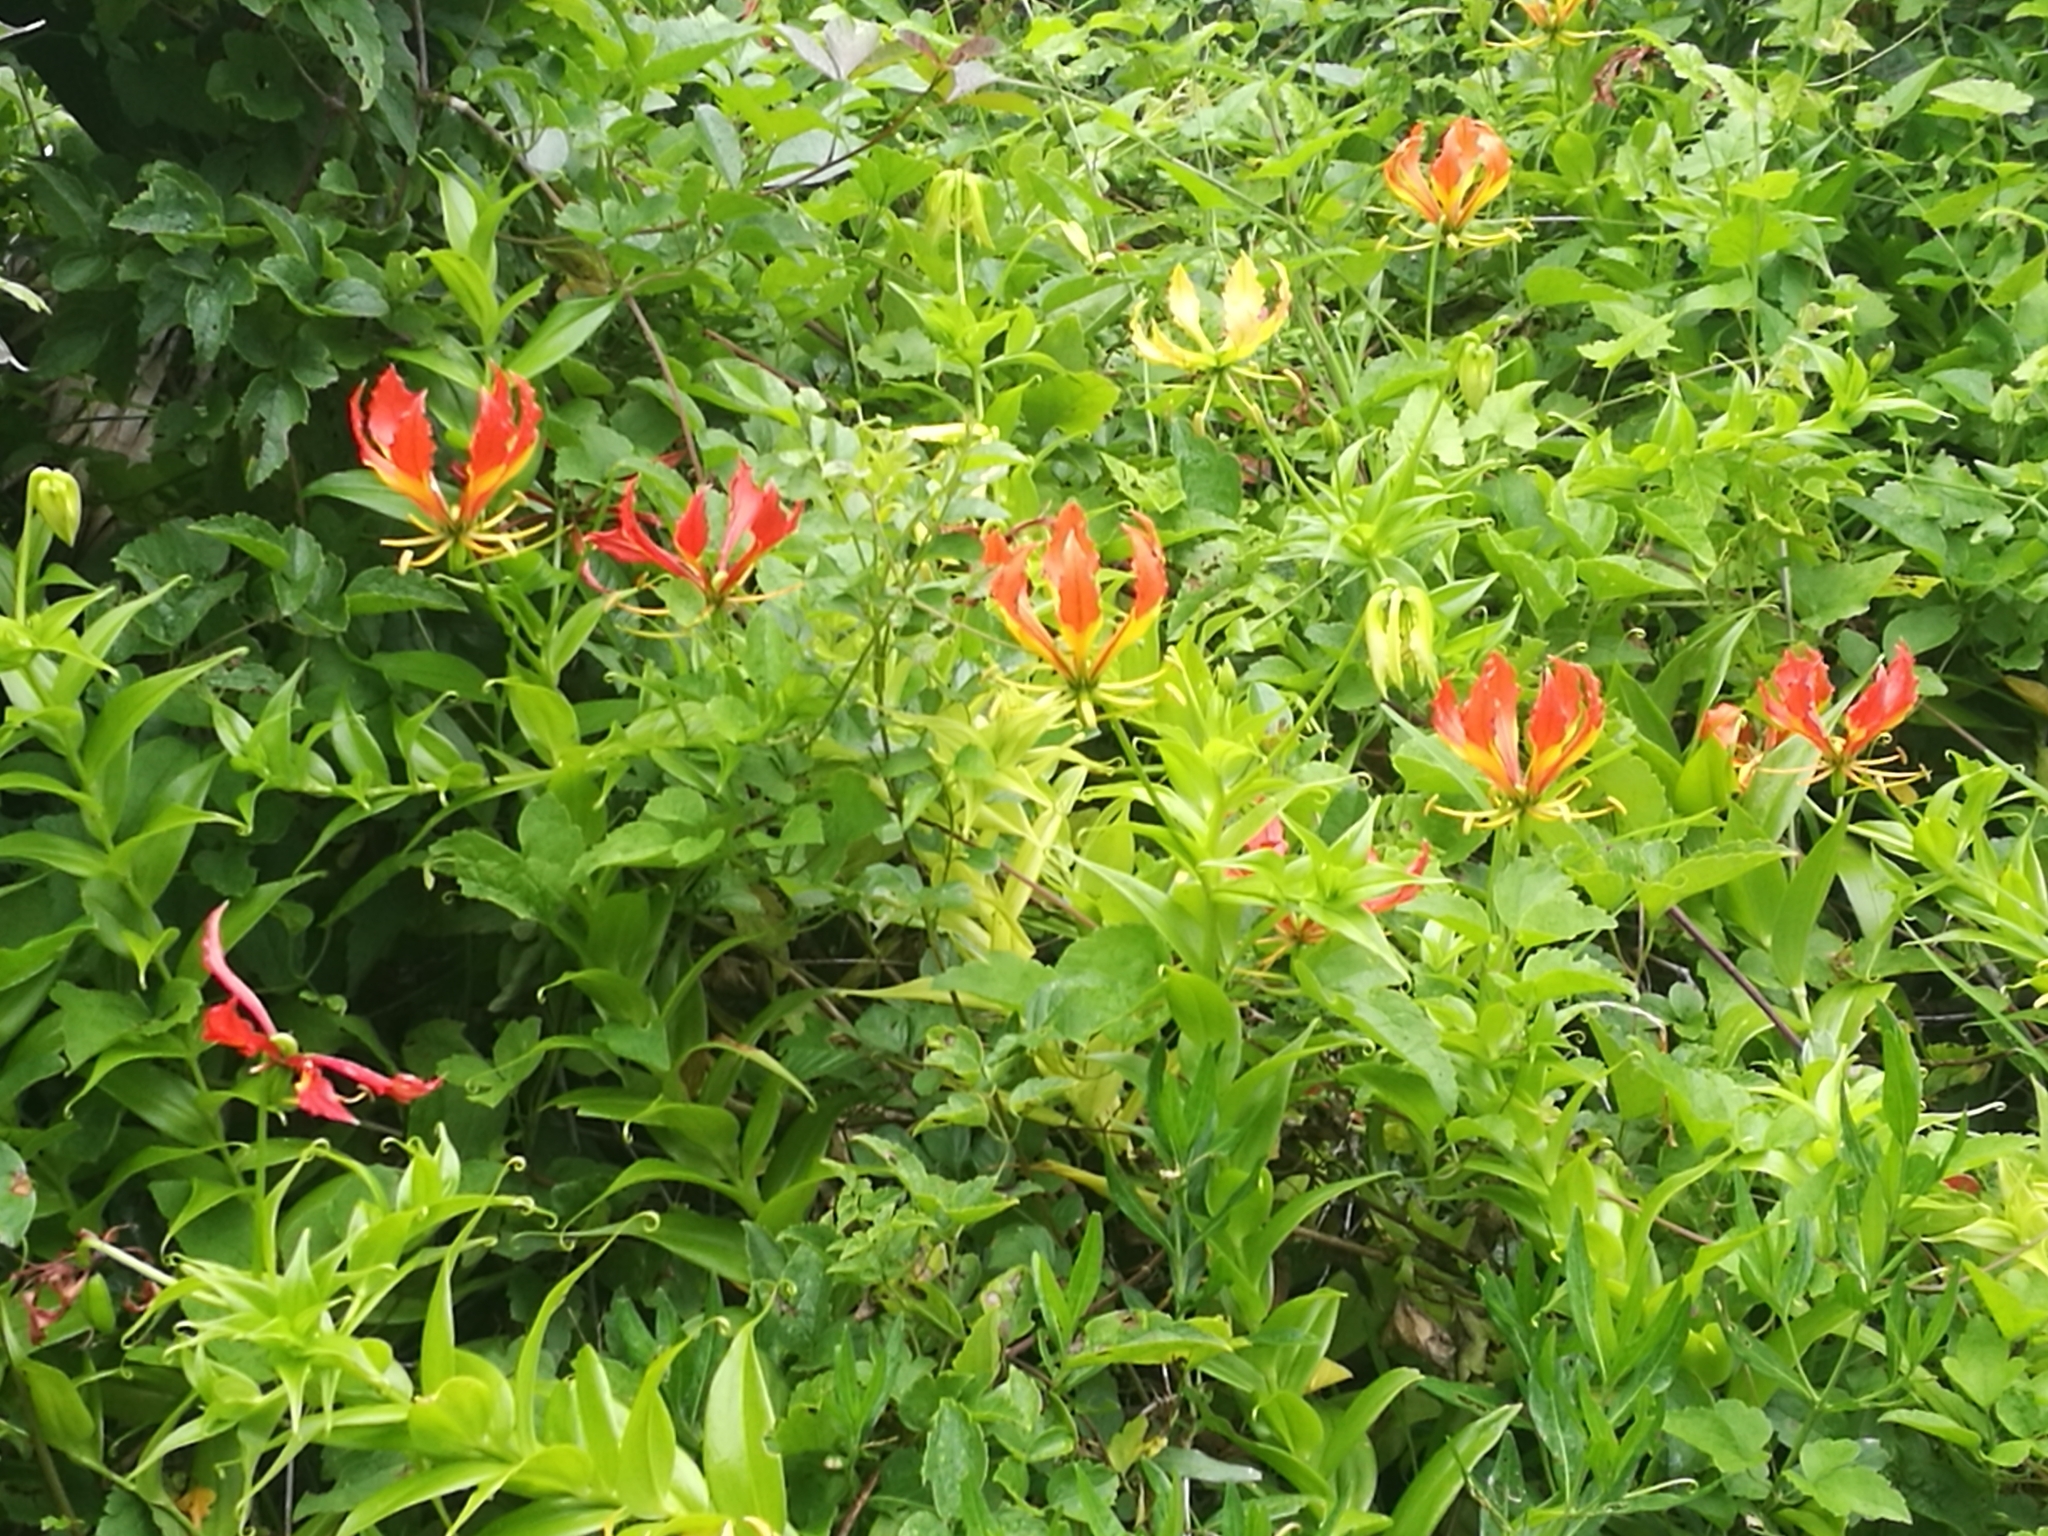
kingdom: Plantae
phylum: Tracheophyta
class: Liliopsida
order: Liliales
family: Colchicaceae
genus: Gloriosa
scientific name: Gloriosa superba
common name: Flame lily
